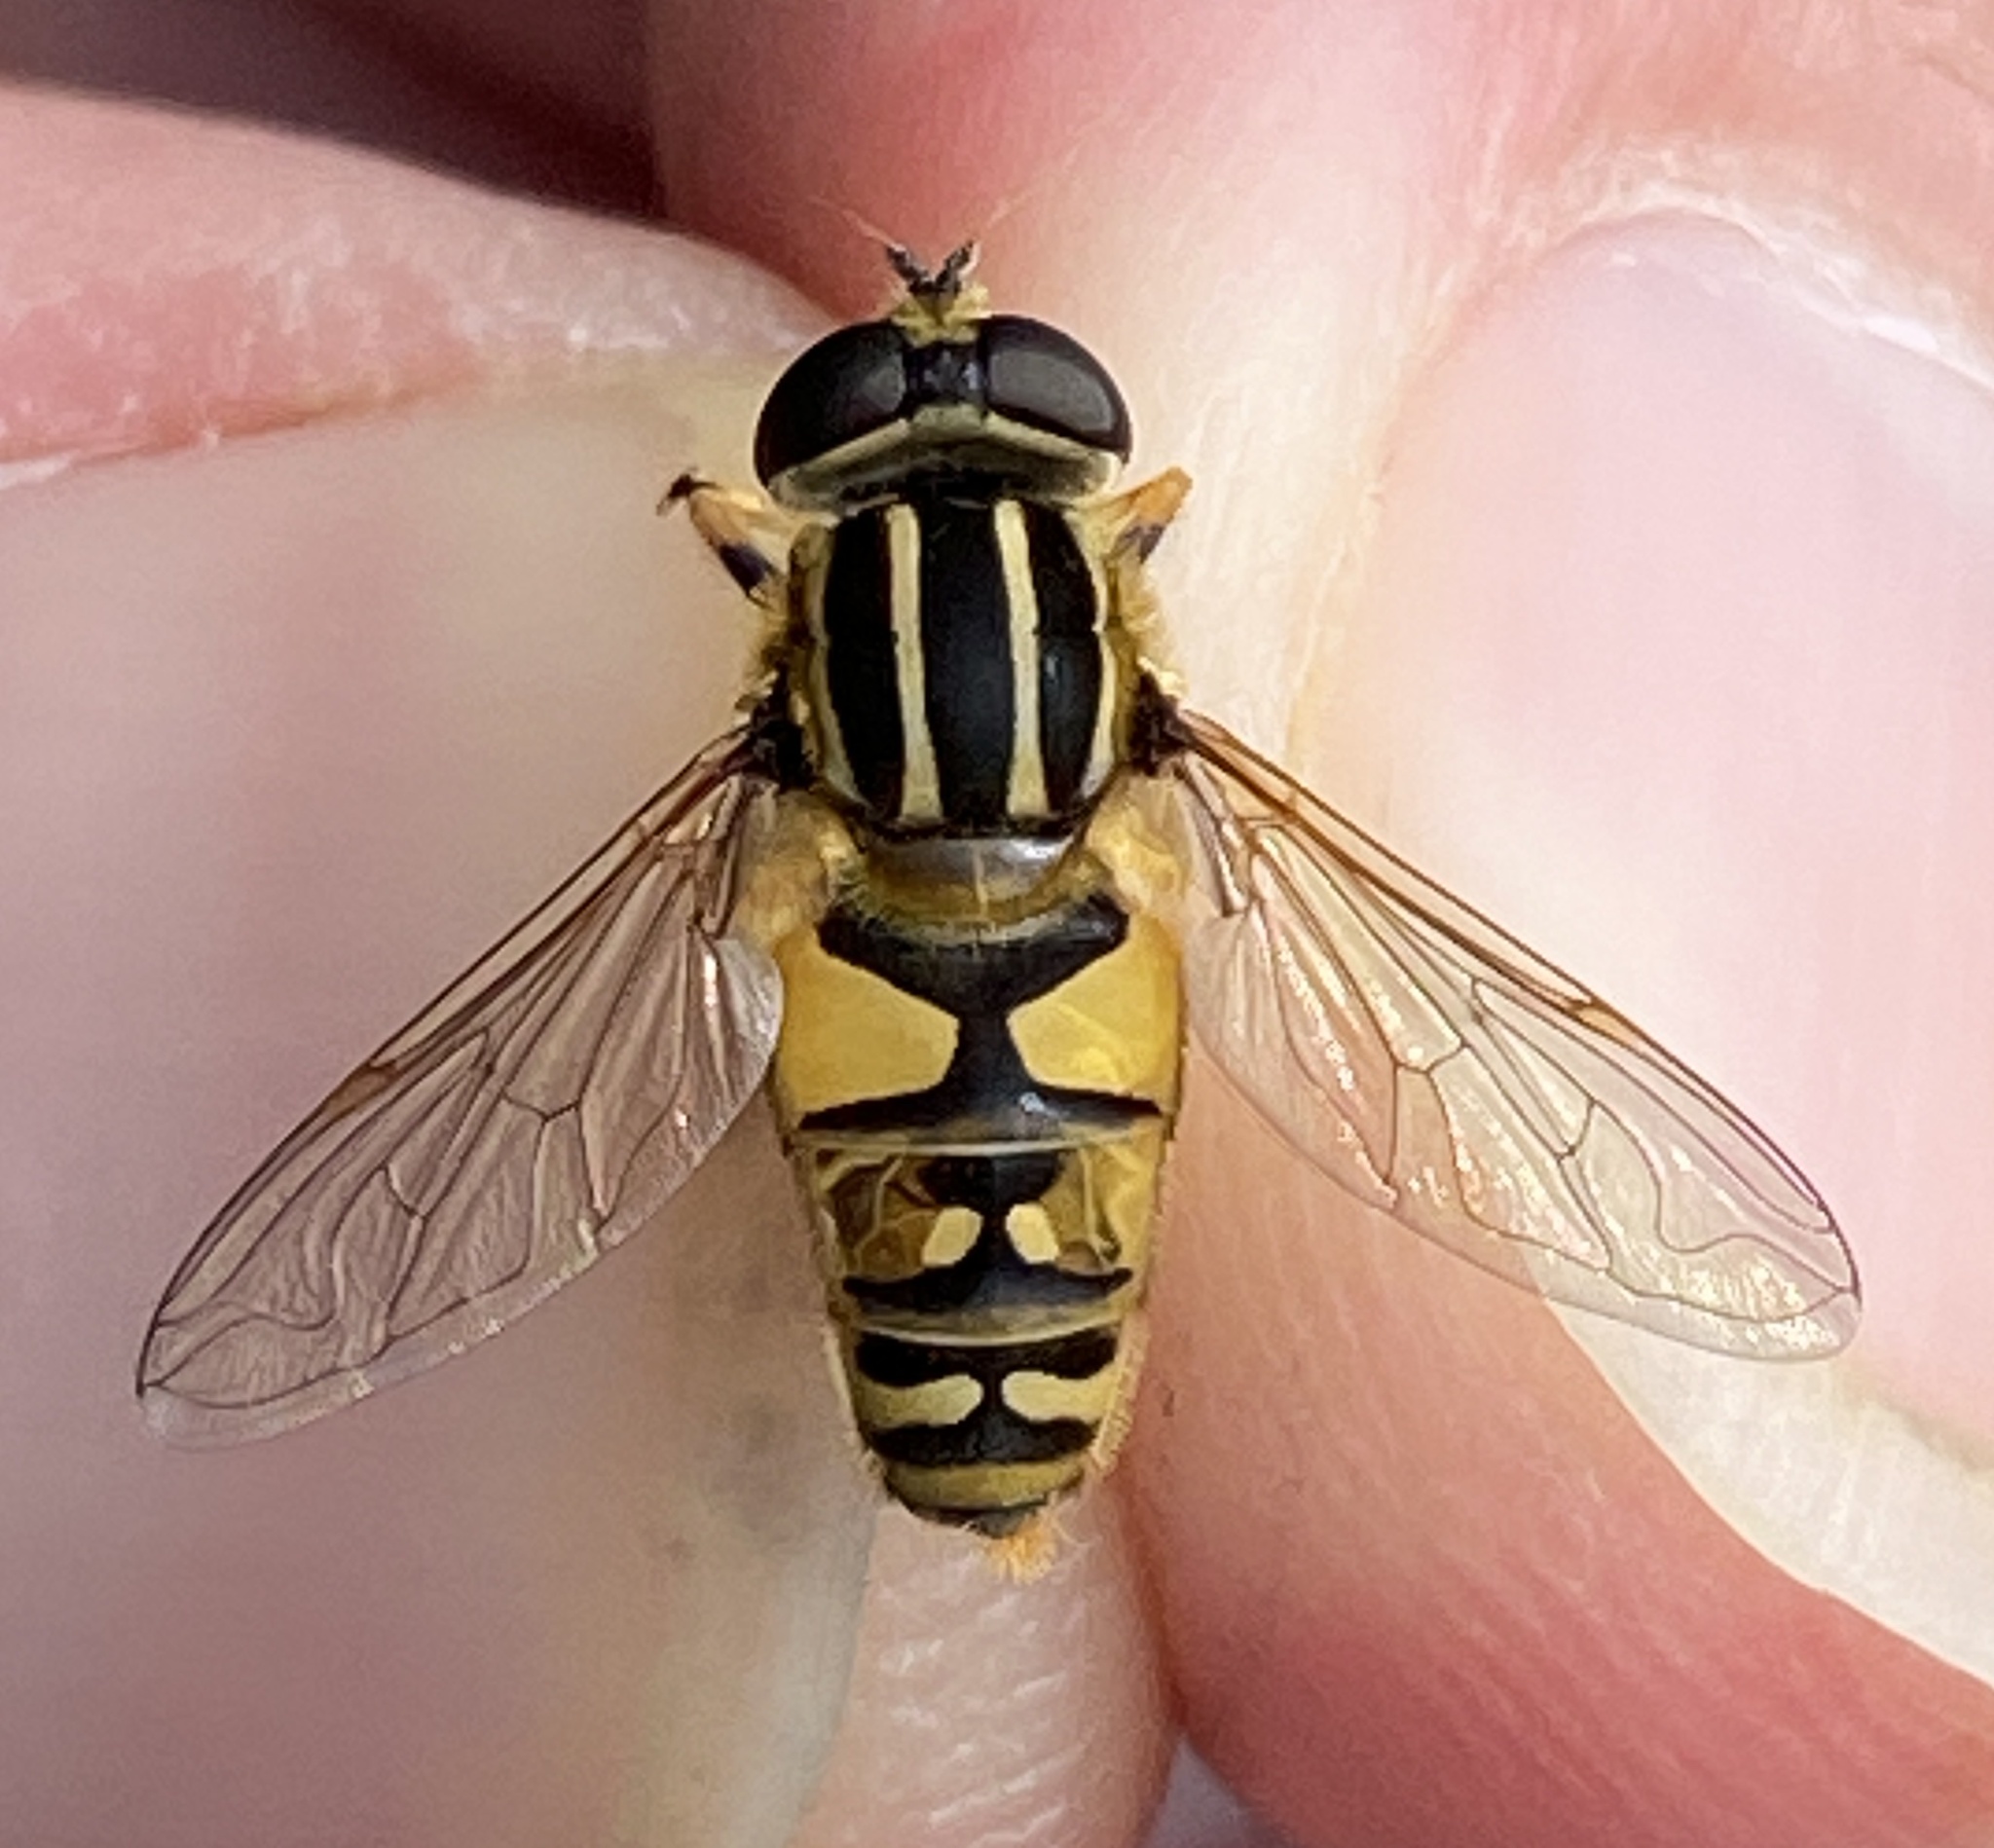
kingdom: Animalia
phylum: Arthropoda
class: Insecta
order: Diptera
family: Syrphidae
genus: Helophilus
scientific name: Helophilus pendulus
